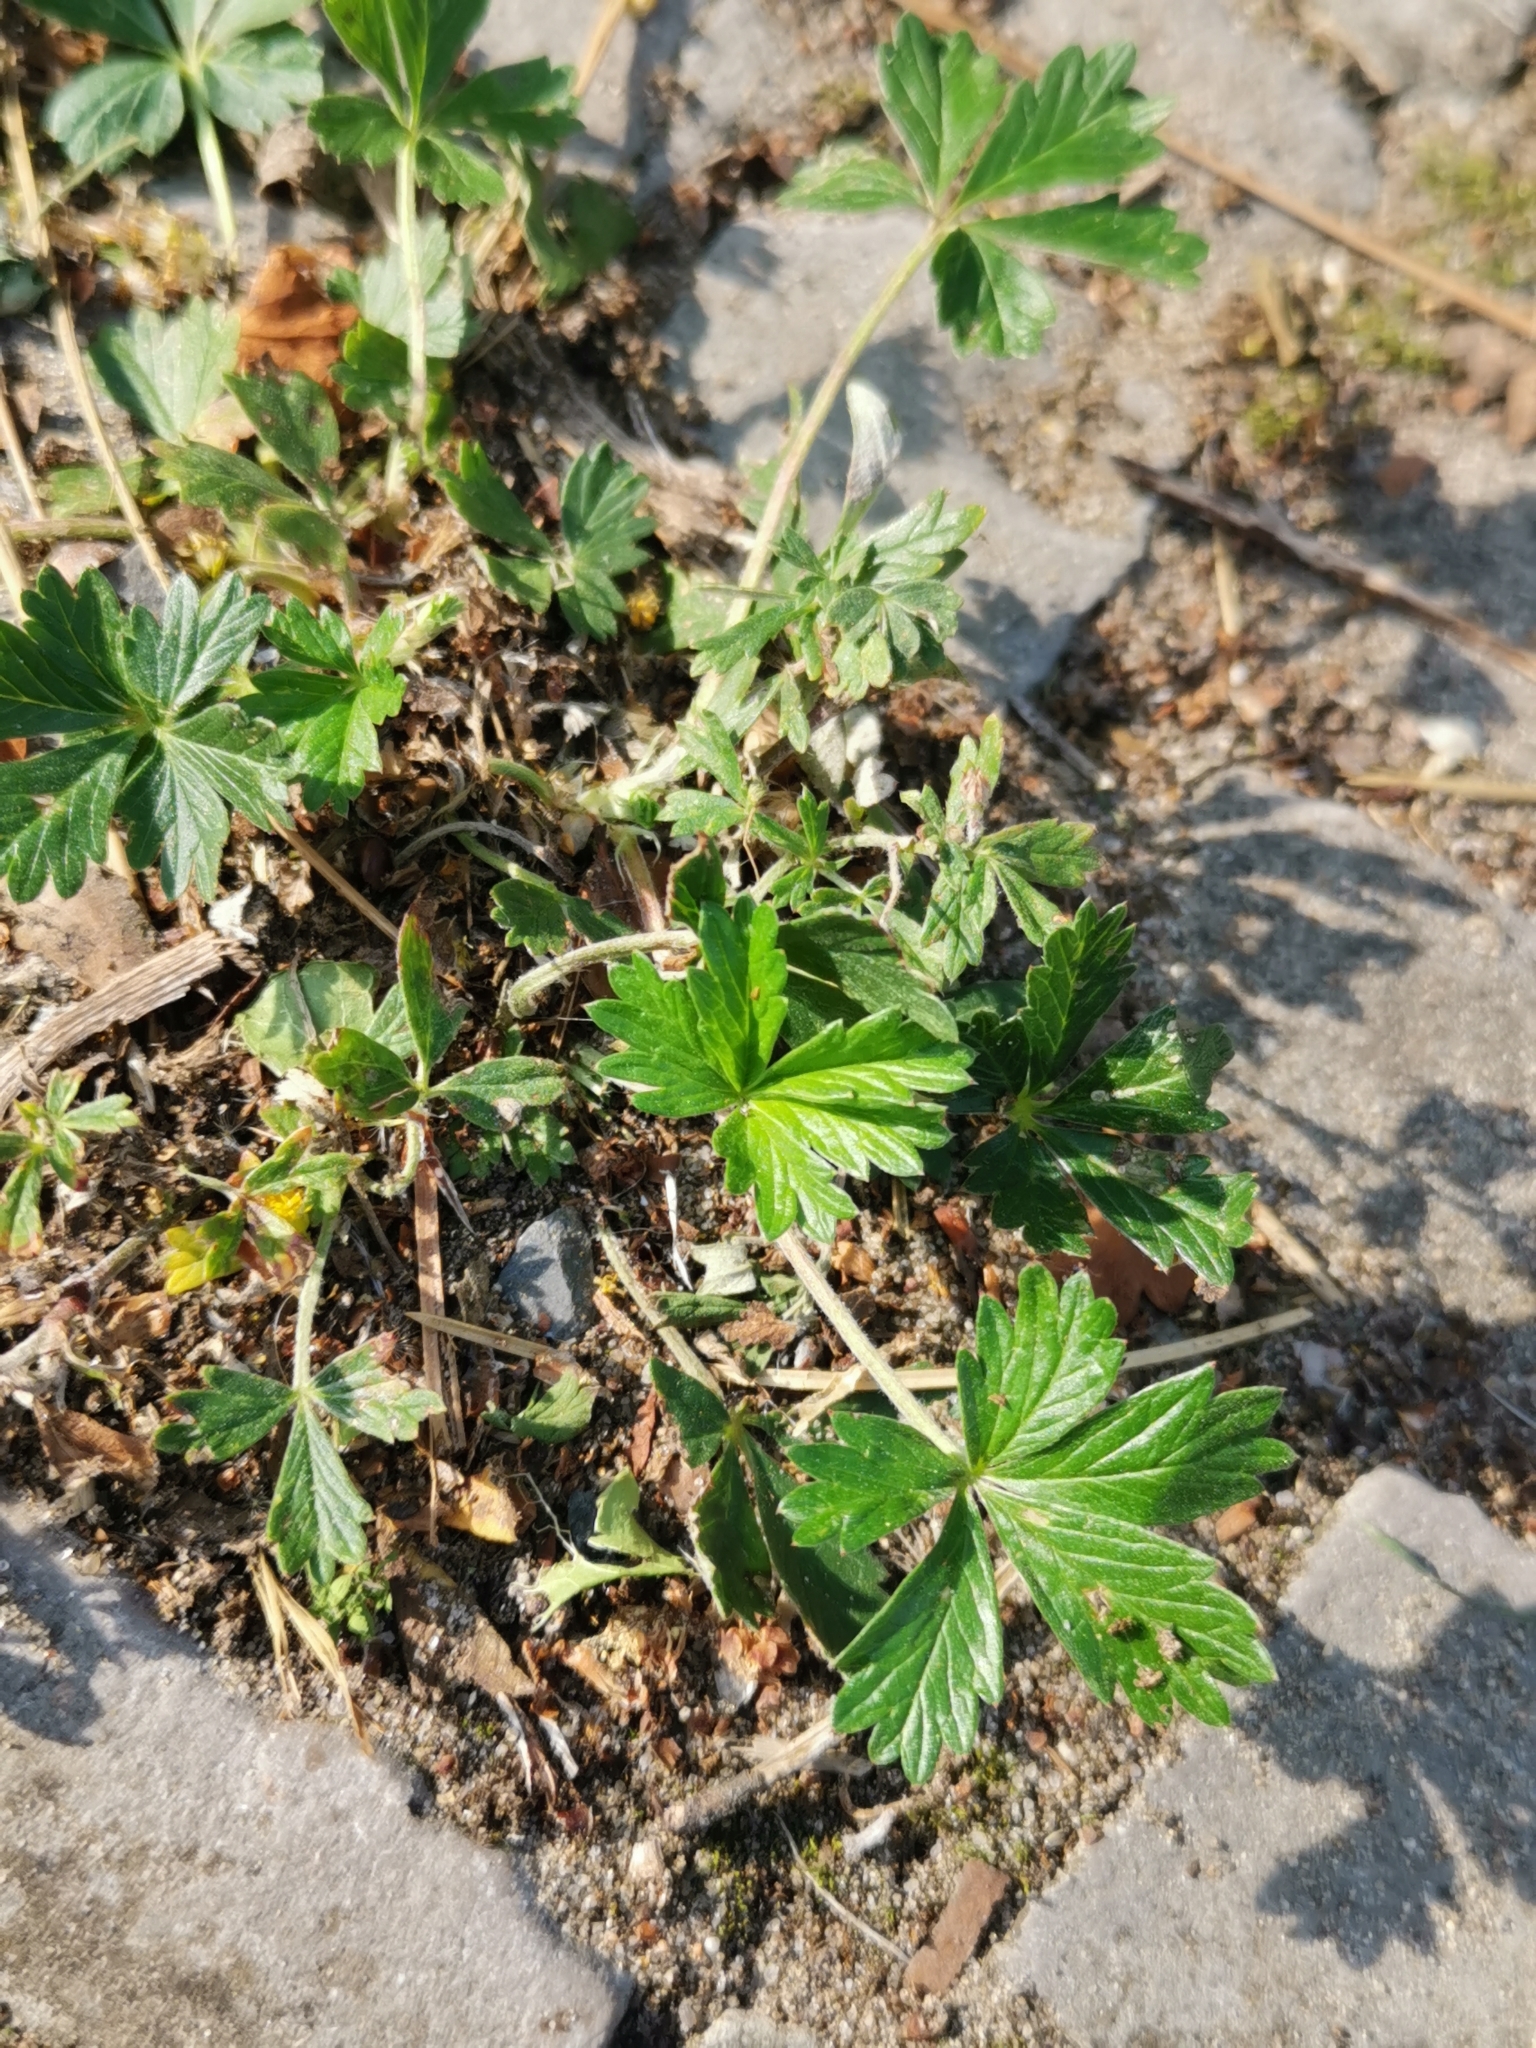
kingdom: Plantae
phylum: Tracheophyta
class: Magnoliopsida
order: Rosales
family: Rosaceae
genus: Potentilla
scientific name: Potentilla argentea
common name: Hoary cinquefoil
